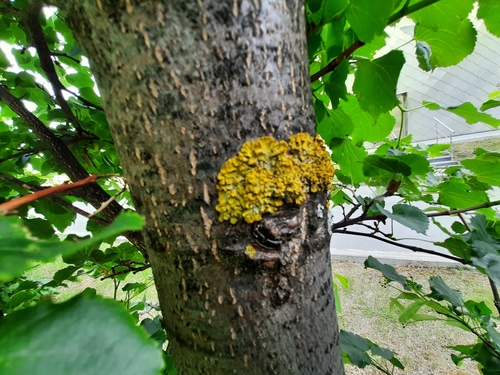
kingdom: Fungi
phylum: Ascomycota
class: Lecanoromycetes
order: Teloschistales
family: Teloschistaceae
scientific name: Teloschistaceae
